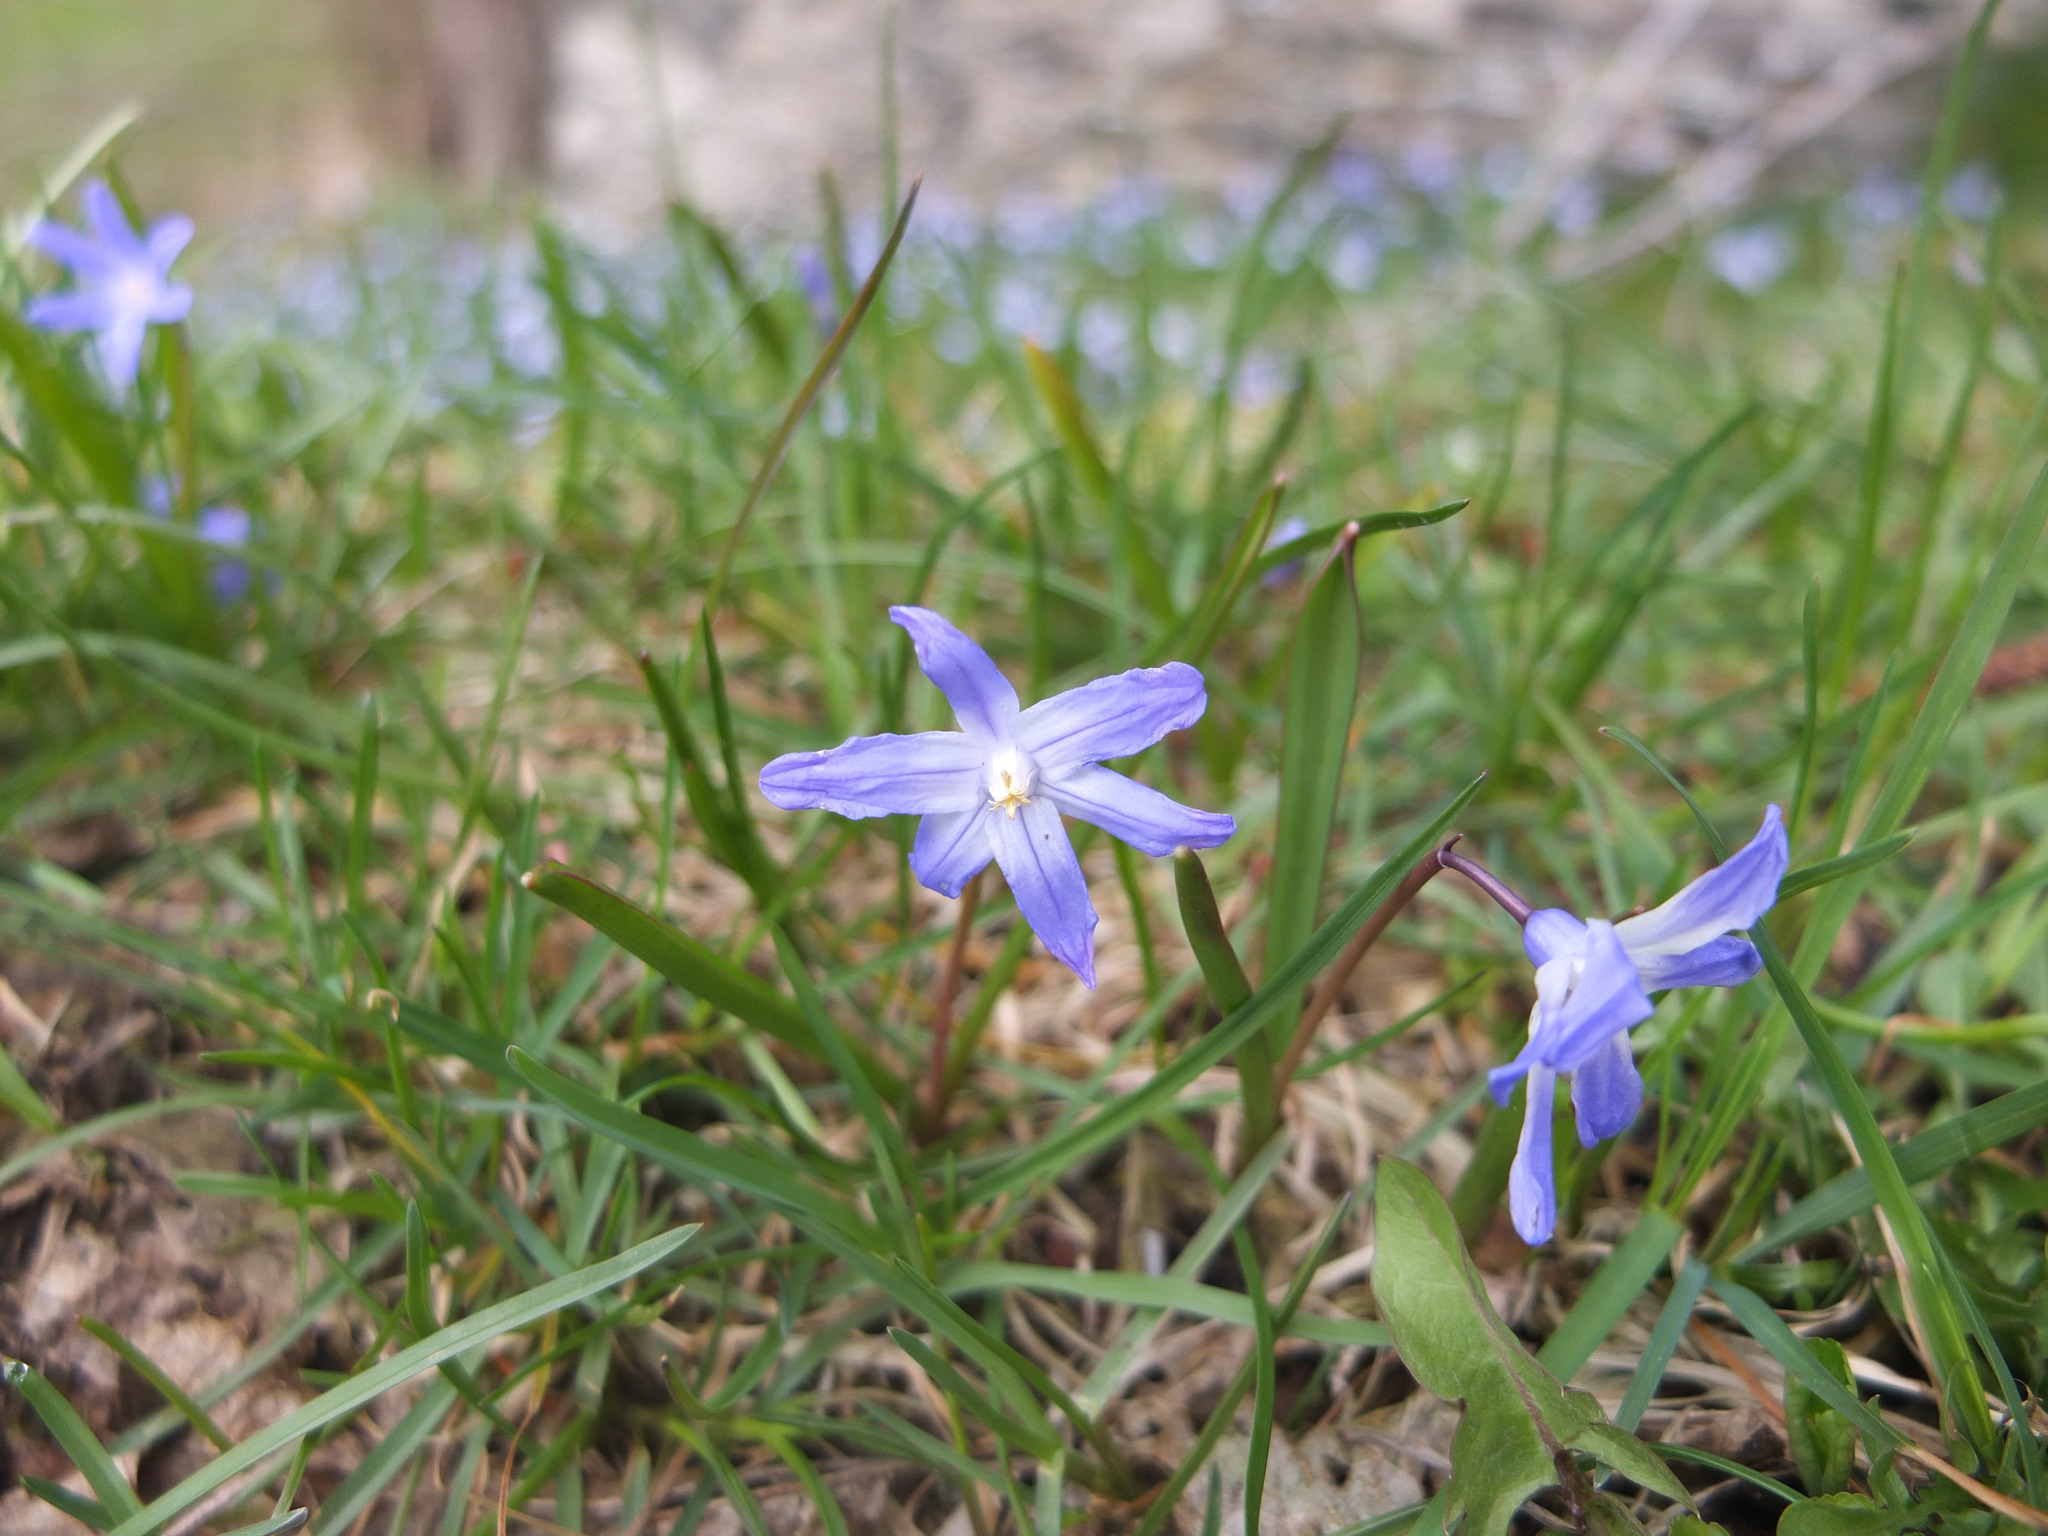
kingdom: Plantae
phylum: Tracheophyta
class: Liliopsida
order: Asparagales
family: Asparagaceae
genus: Scilla
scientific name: Scilla luciliae
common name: Boissier's glory-of-the-snow
